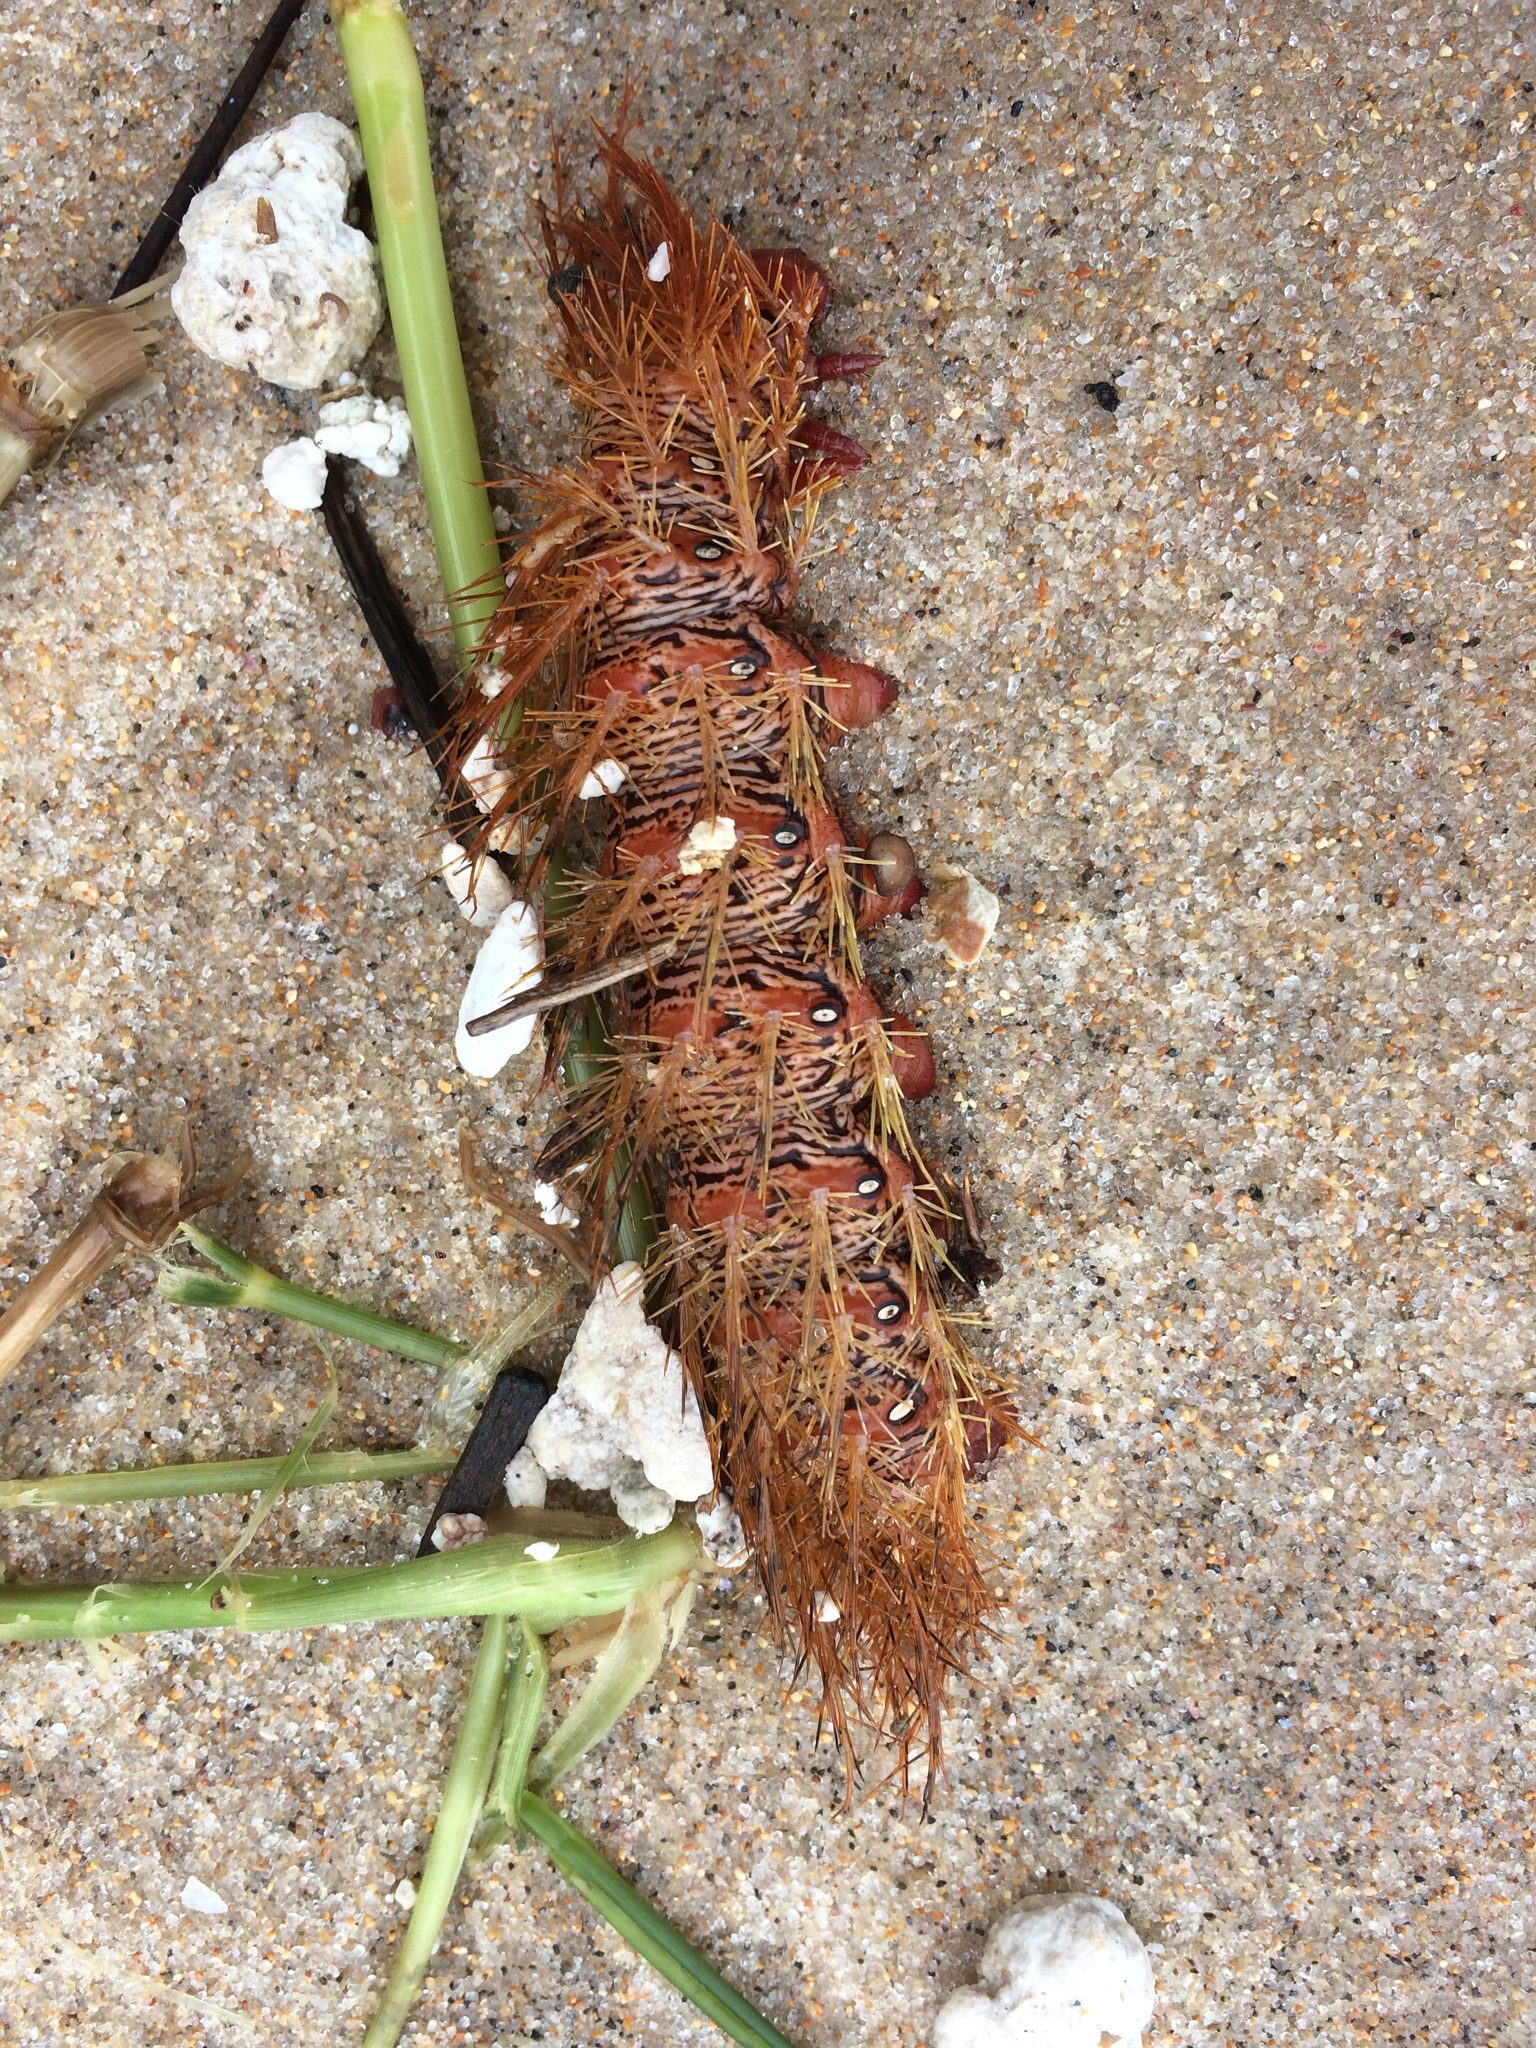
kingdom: Animalia
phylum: Arthropoda
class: Insecta
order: Lepidoptera
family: Saturniidae
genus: Dirphia
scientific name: Dirphia moderata
